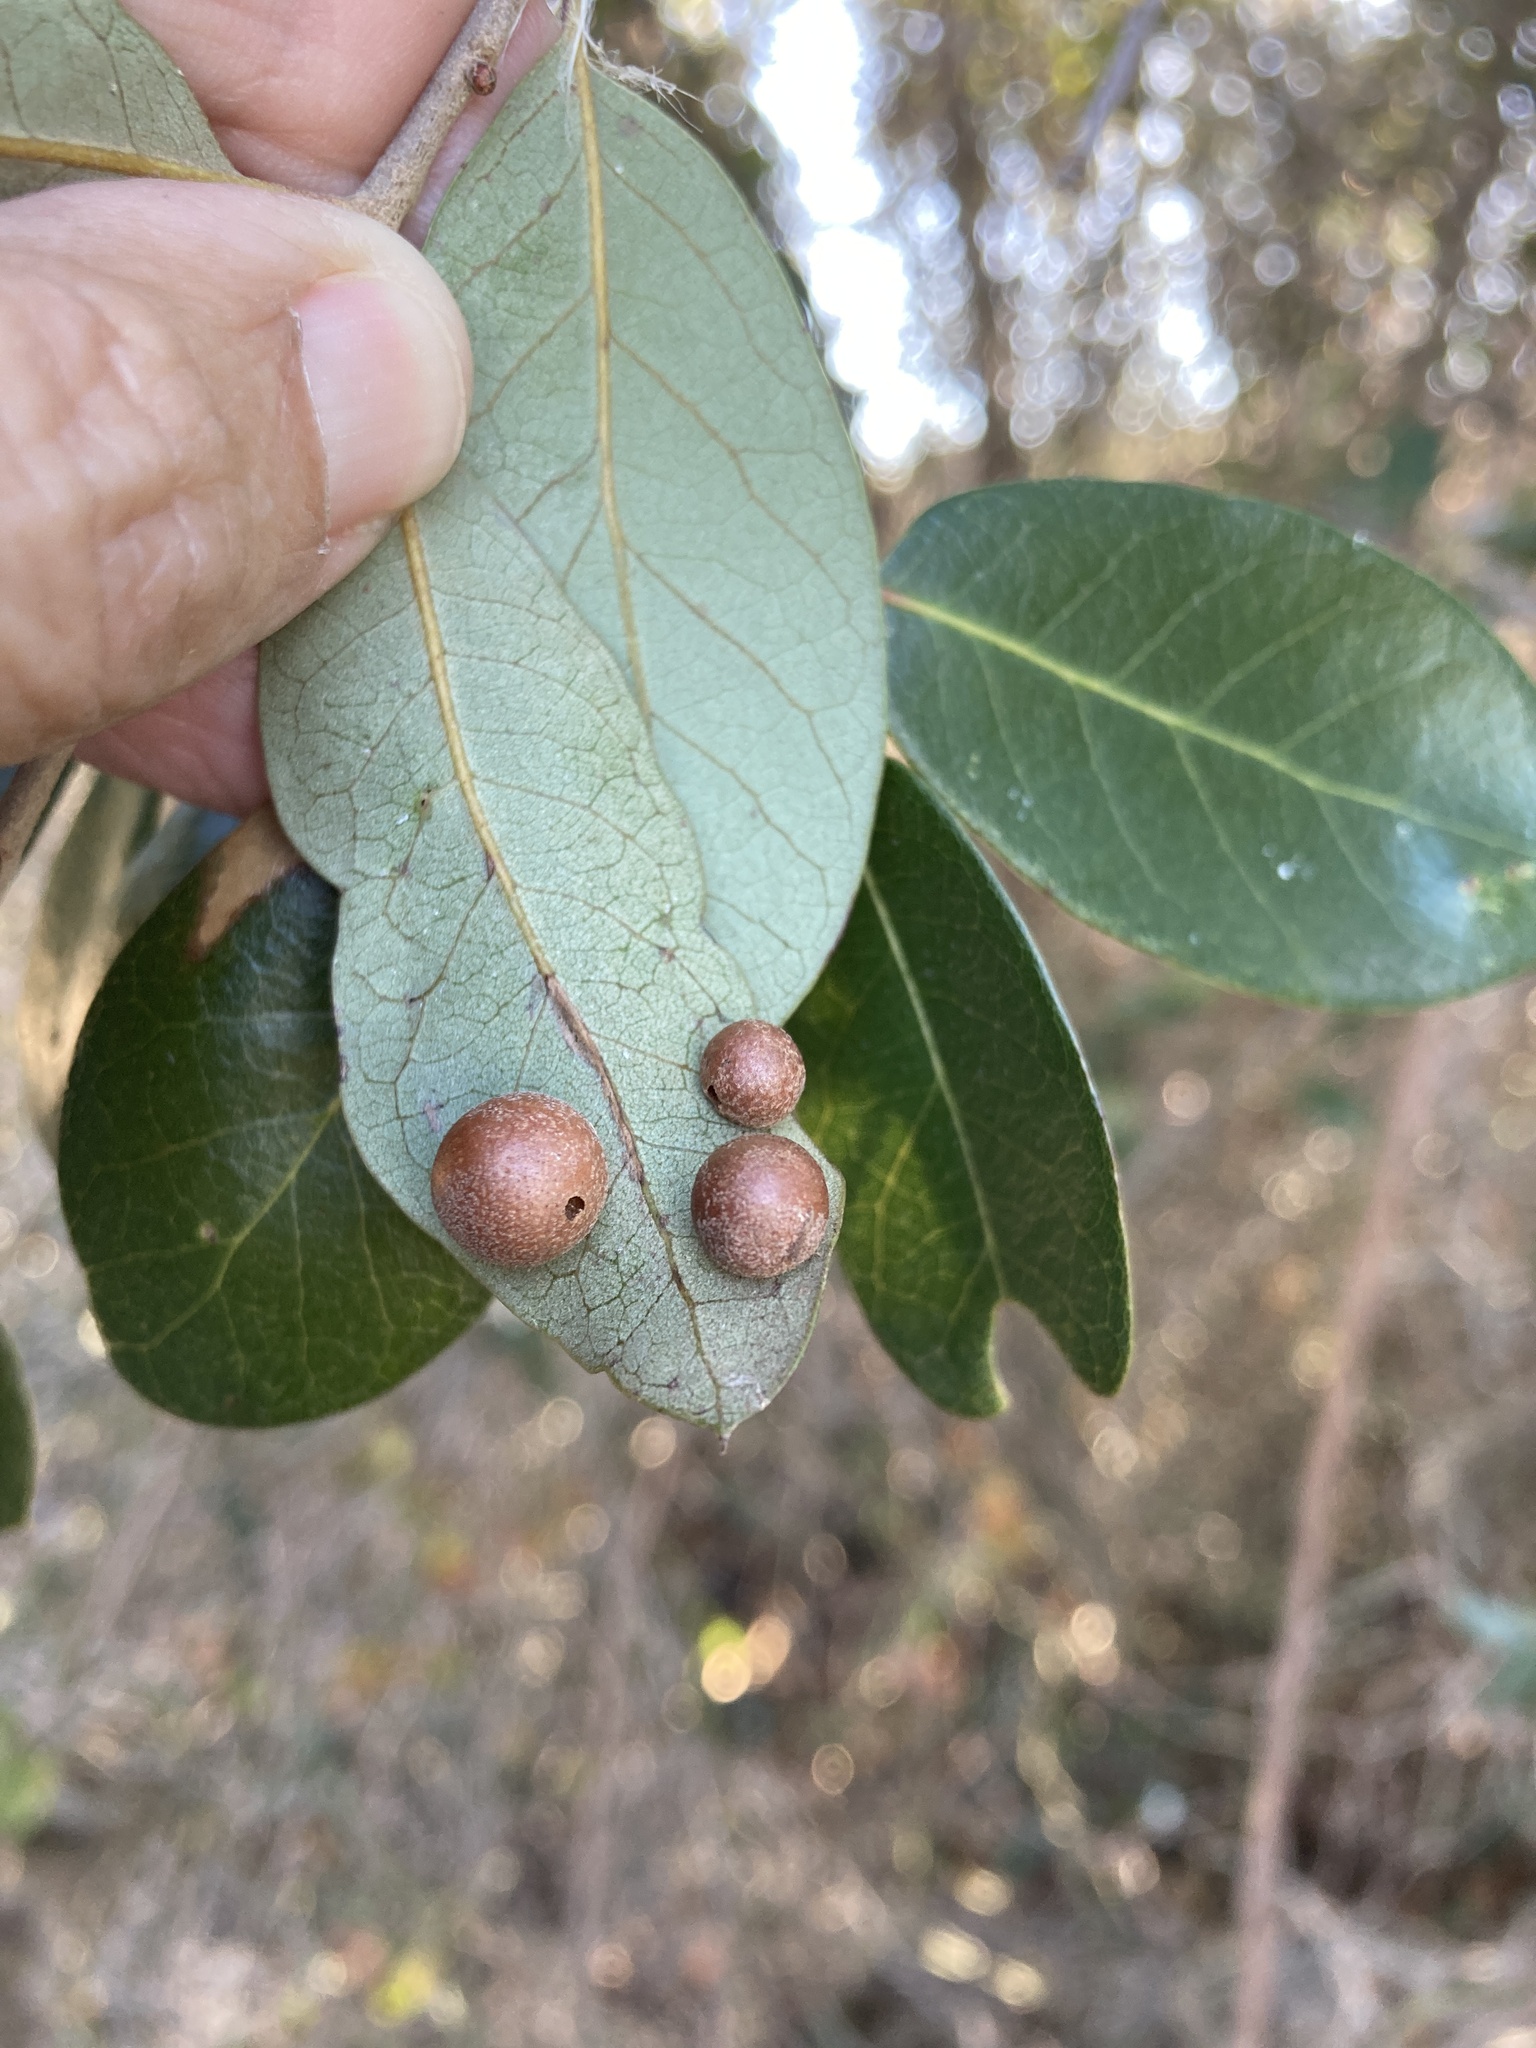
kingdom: Animalia
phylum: Arthropoda
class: Insecta
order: Hymenoptera
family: Cynipidae
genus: Belonocnema
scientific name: Belonocnema kinseyi
